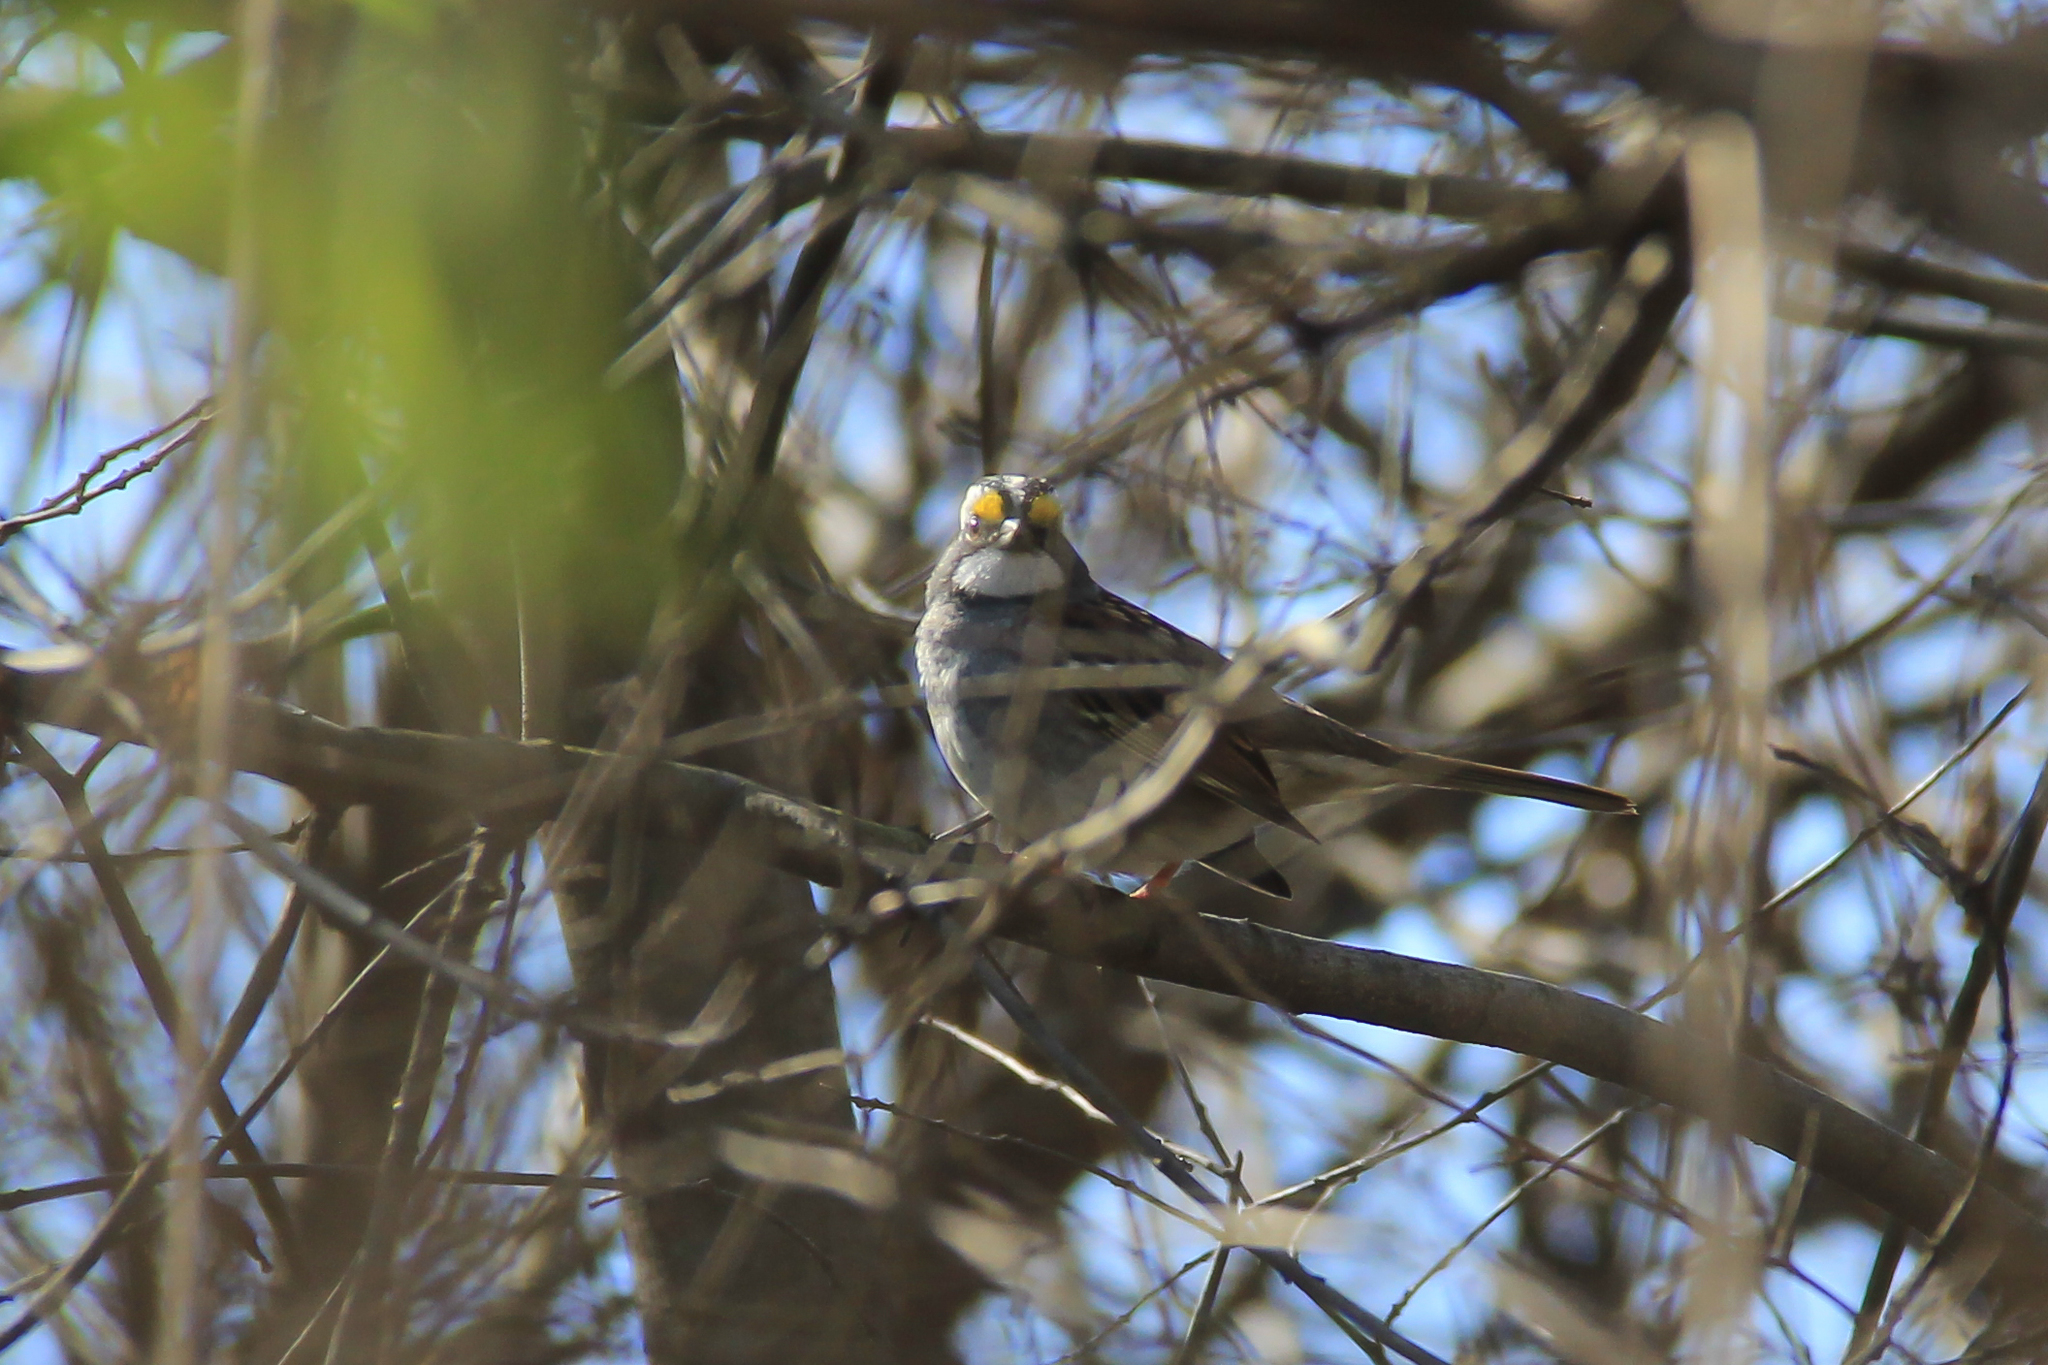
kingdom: Animalia
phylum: Chordata
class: Aves
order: Passeriformes
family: Passerellidae
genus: Zonotrichia
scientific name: Zonotrichia albicollis
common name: White-throated sparrow
